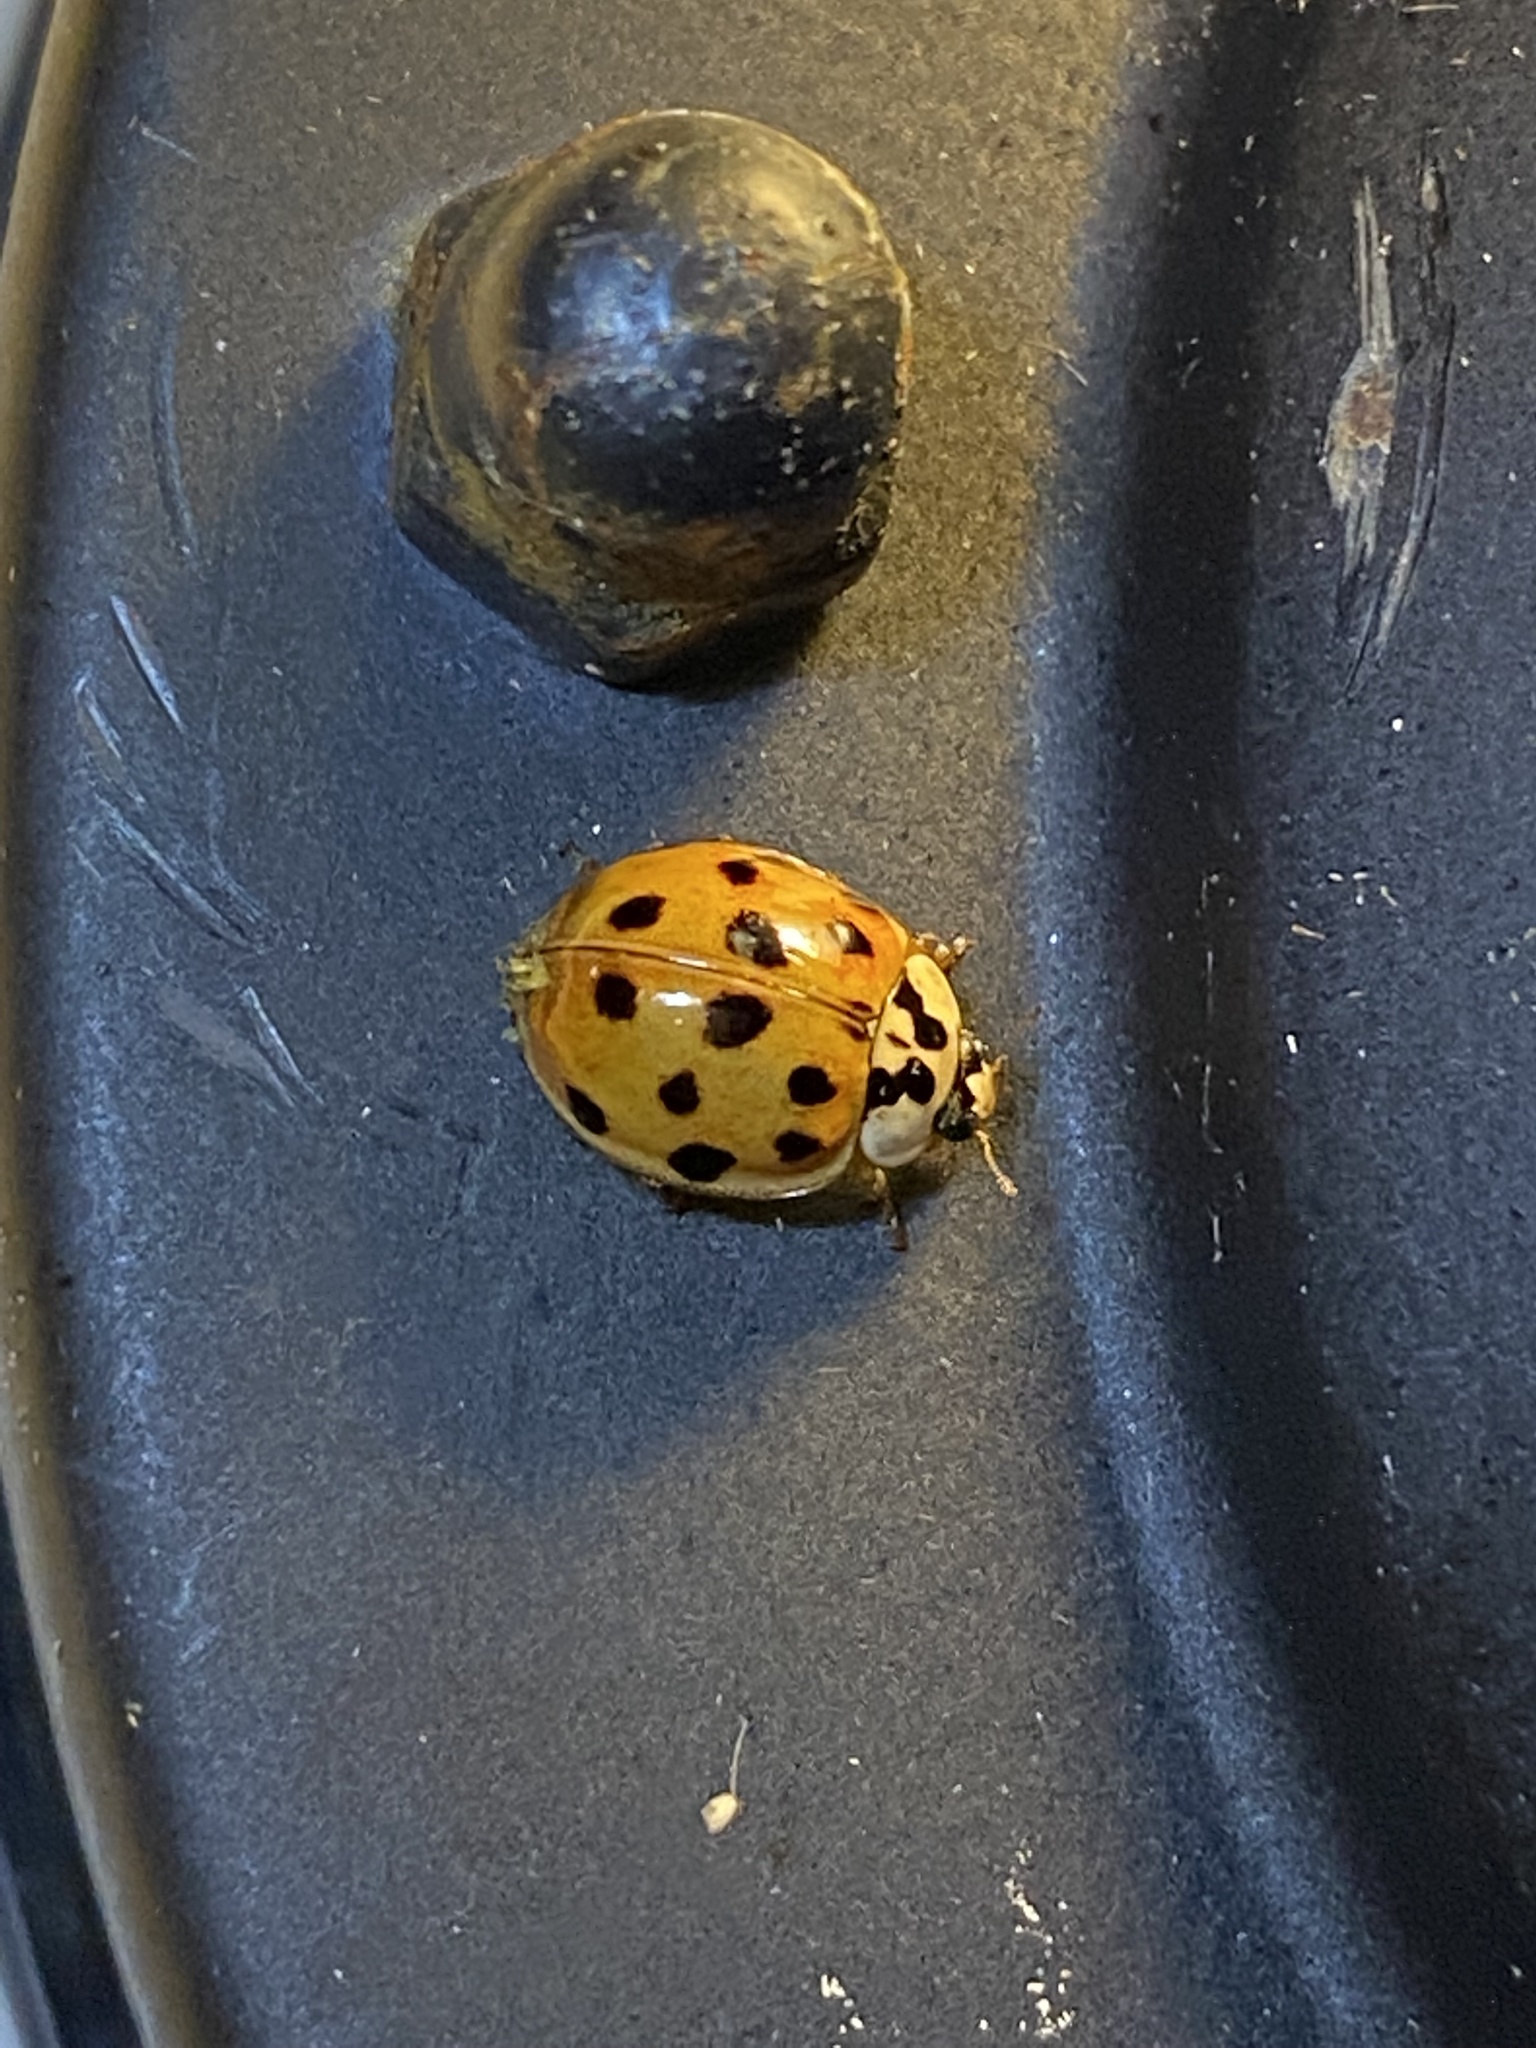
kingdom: Animalia
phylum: Arthropoda
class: Insecta
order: Coleoptera
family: Coccinellidae
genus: Harmonia
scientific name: Harmonia axyridis
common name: Harlequin ladybird
